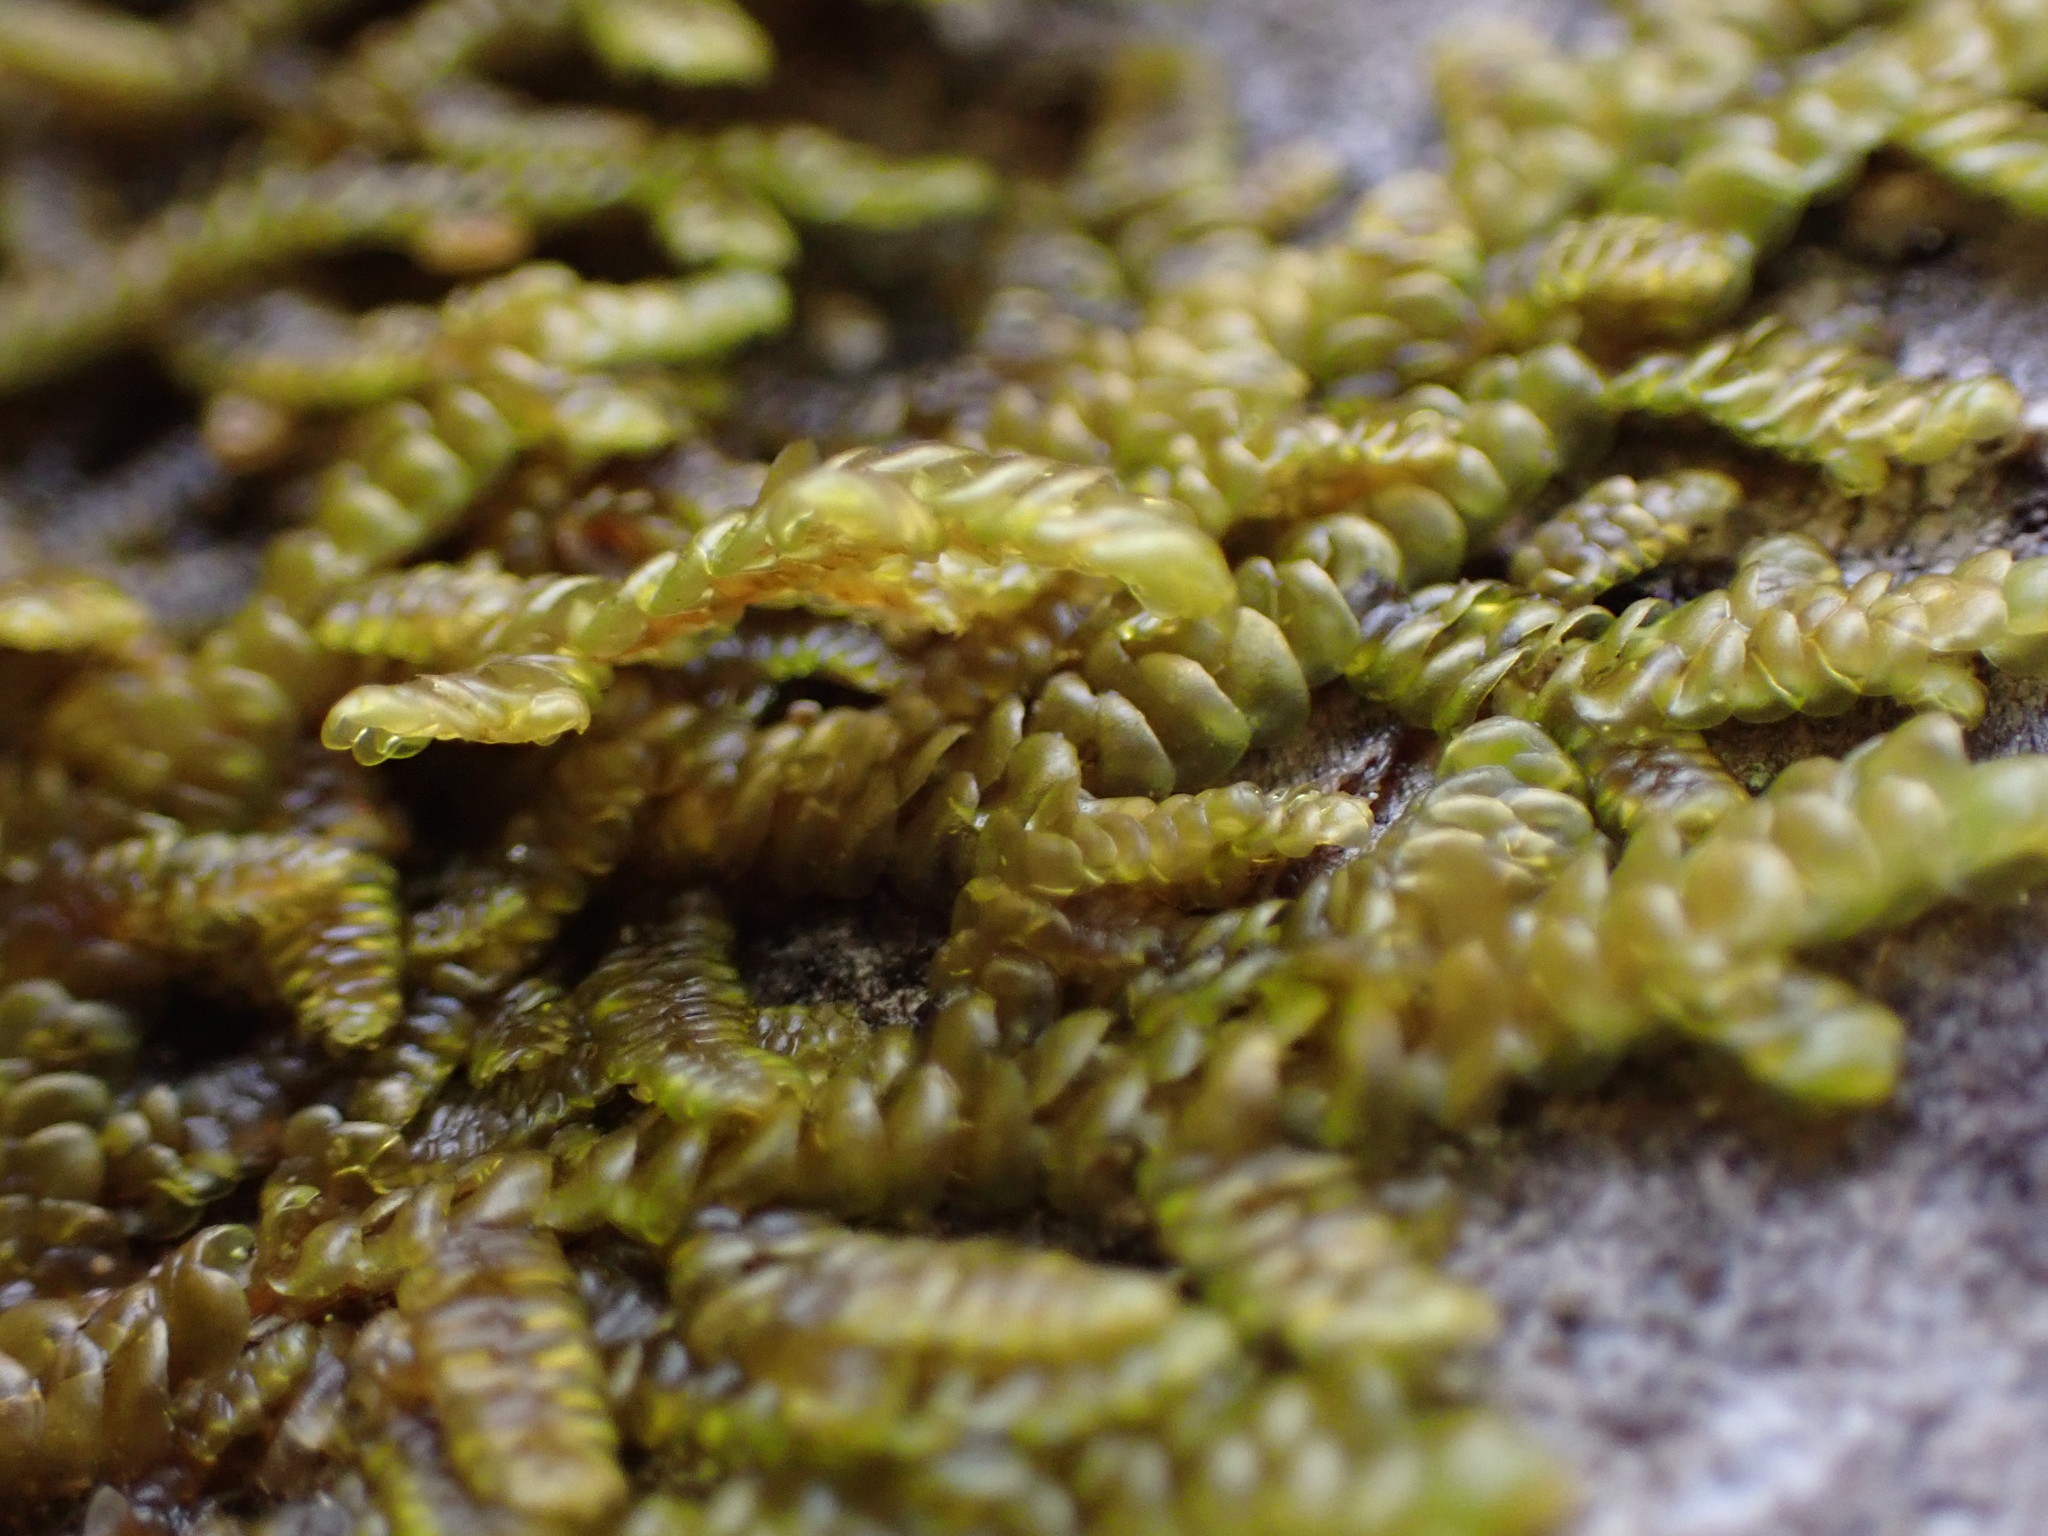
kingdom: Plantae
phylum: Marchantiophyta
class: Jungermanniopsida
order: Porellales
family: Porellaceae
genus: Porella
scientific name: Porella navicularis
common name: Tree ruffle liverwort
